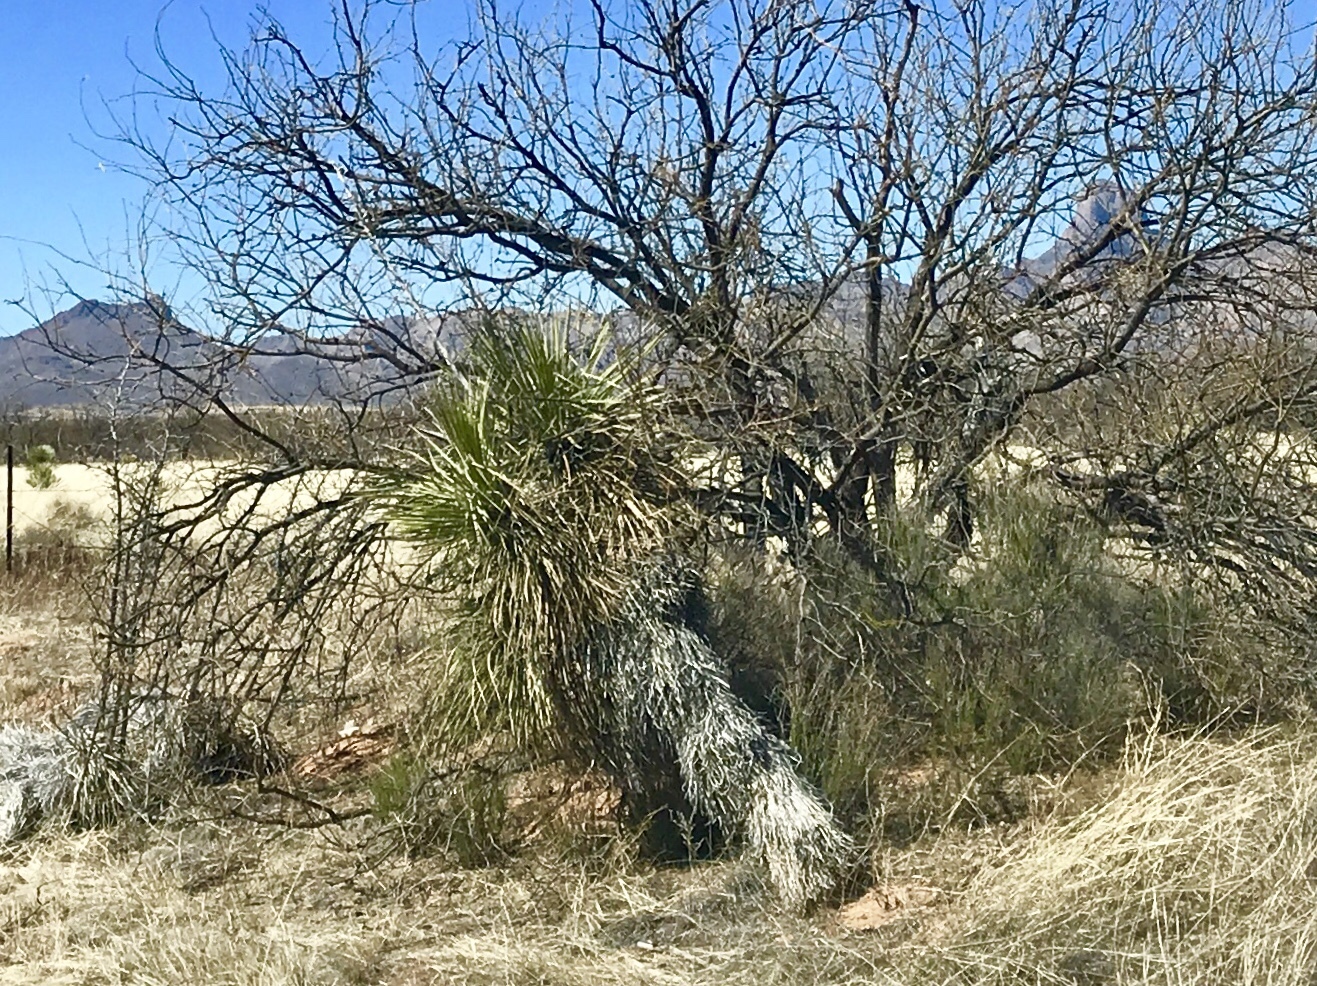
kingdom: Plantae
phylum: Tracheophyta
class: Liliopsida
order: Asparagales
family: Asparagaceae
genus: Yucca
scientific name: Yucca elata
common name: Palmella
